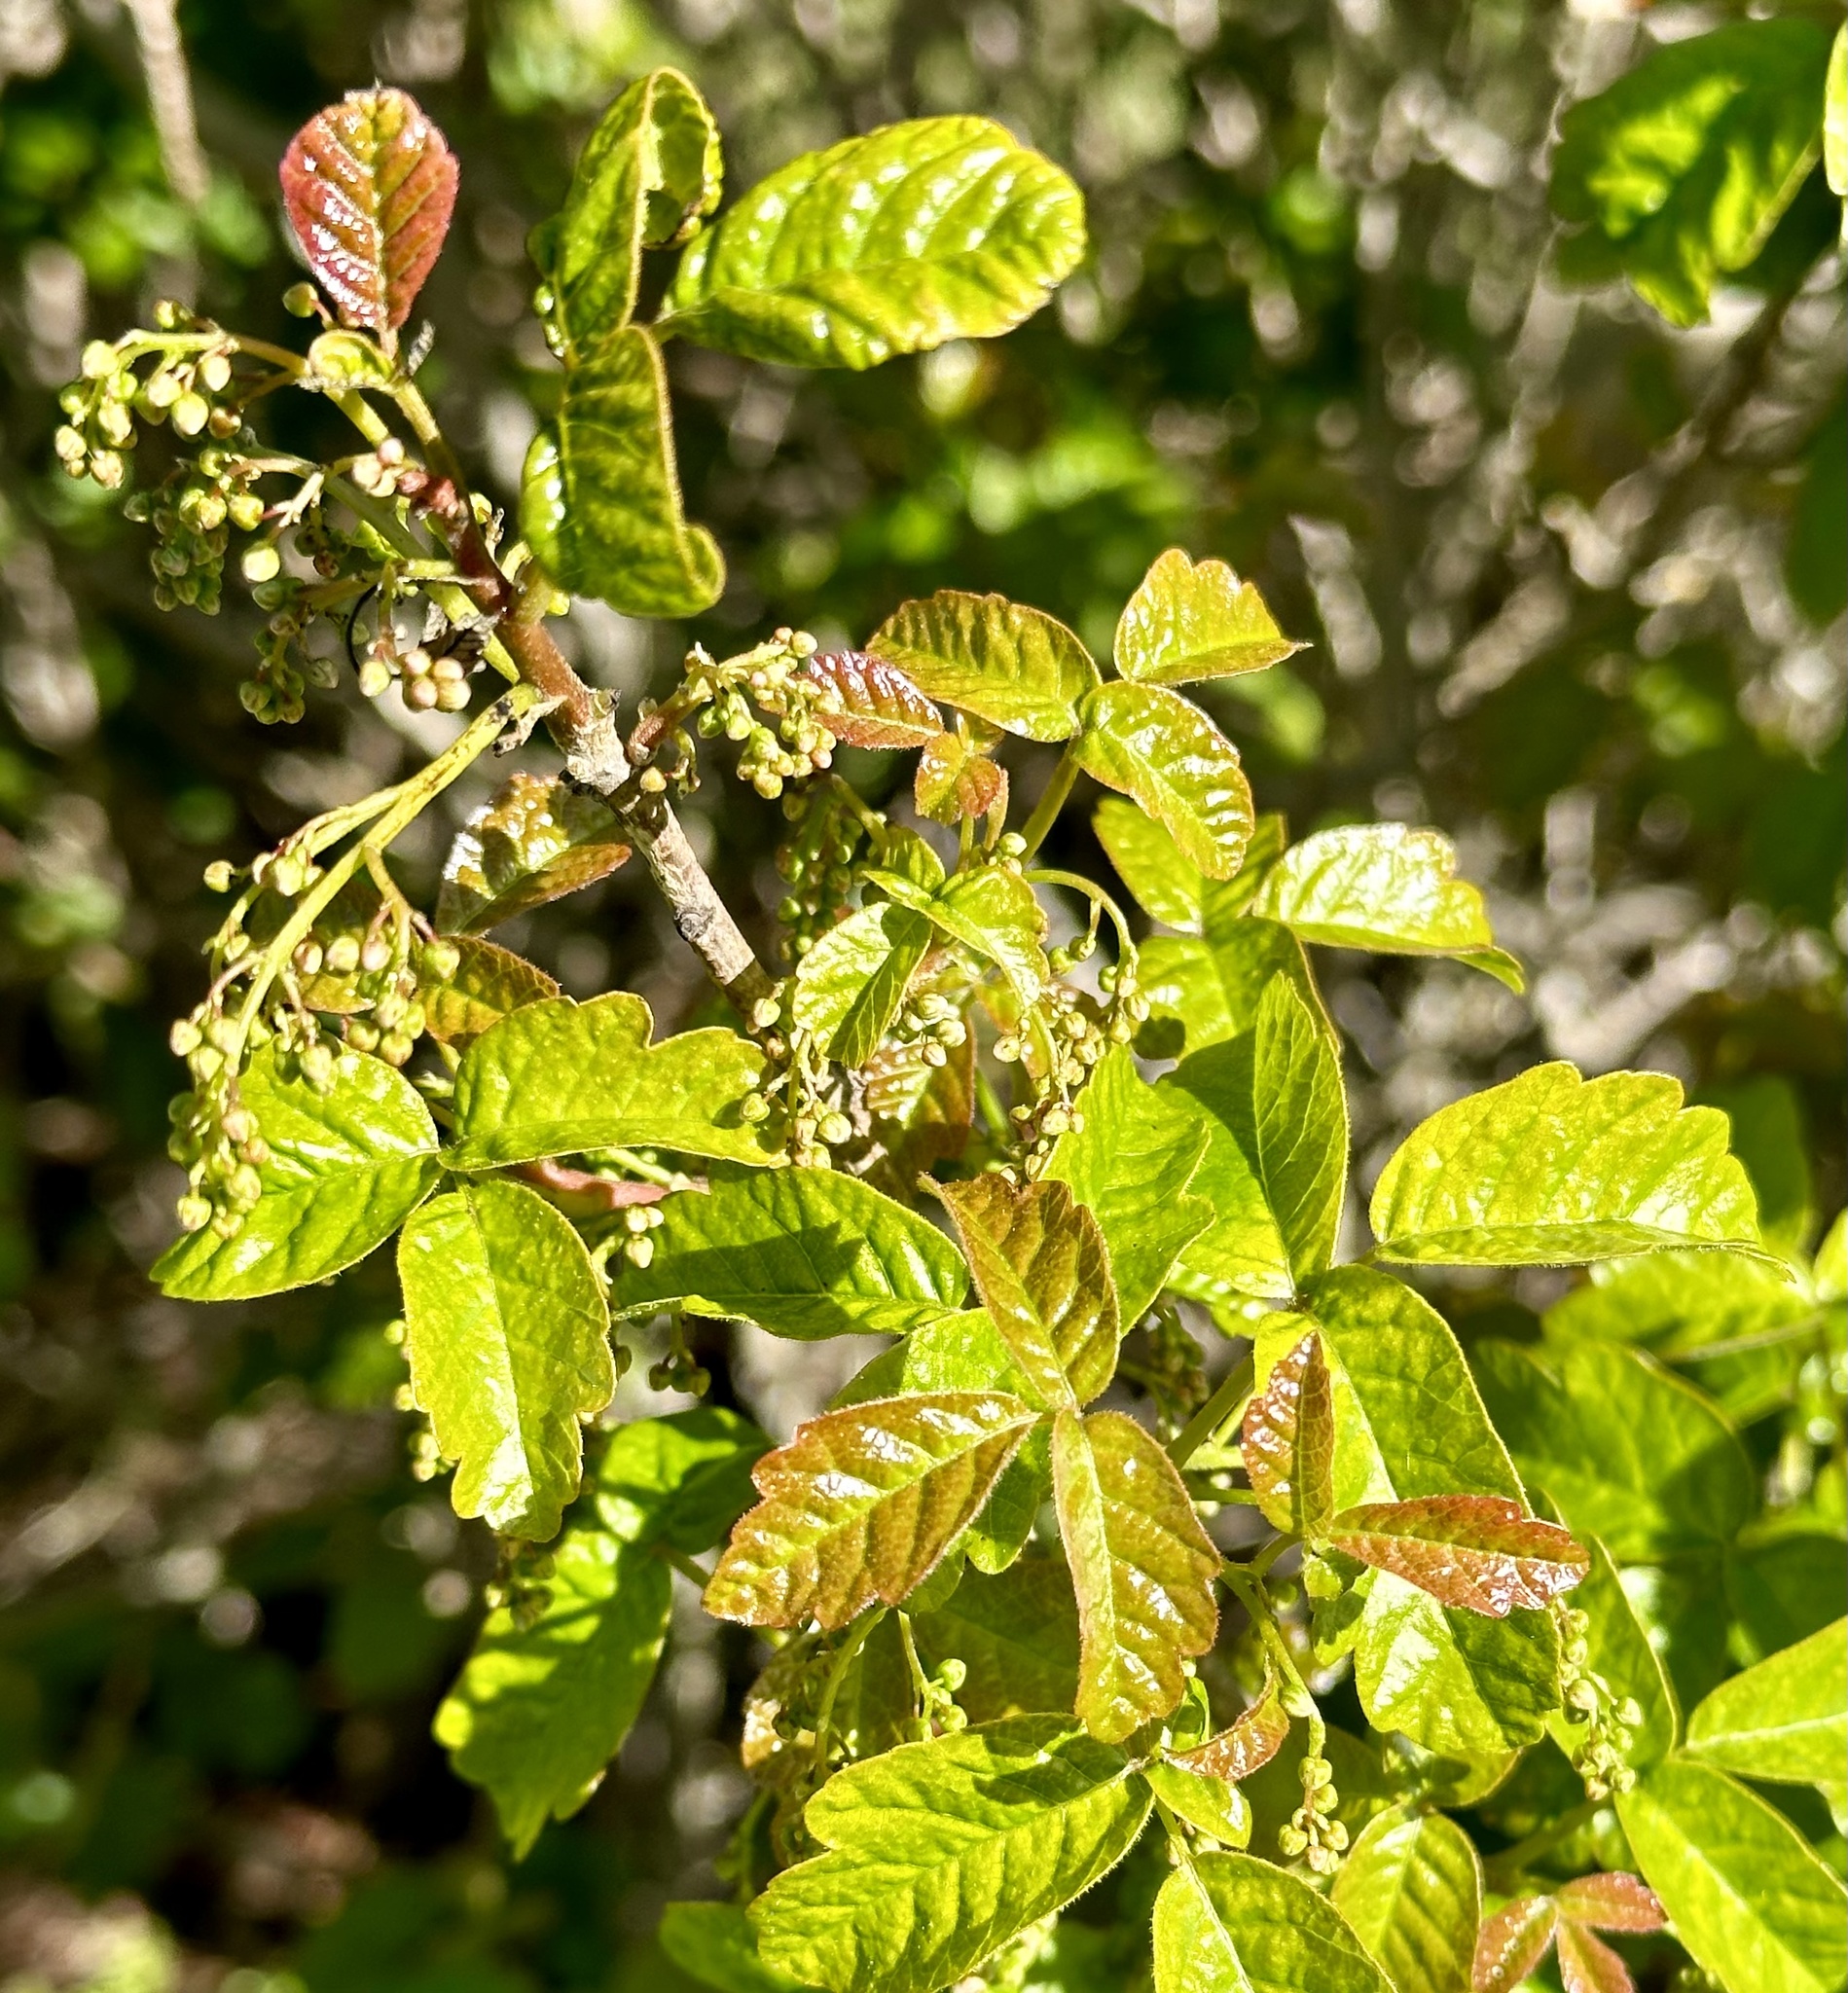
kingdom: Plantae
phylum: Tracheophyta
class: Magnoliopsida
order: Sapindales
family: Anacardiaceae
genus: Toxicodendron
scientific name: Toxicodendron diversilobum
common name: Pacific poison-oak
